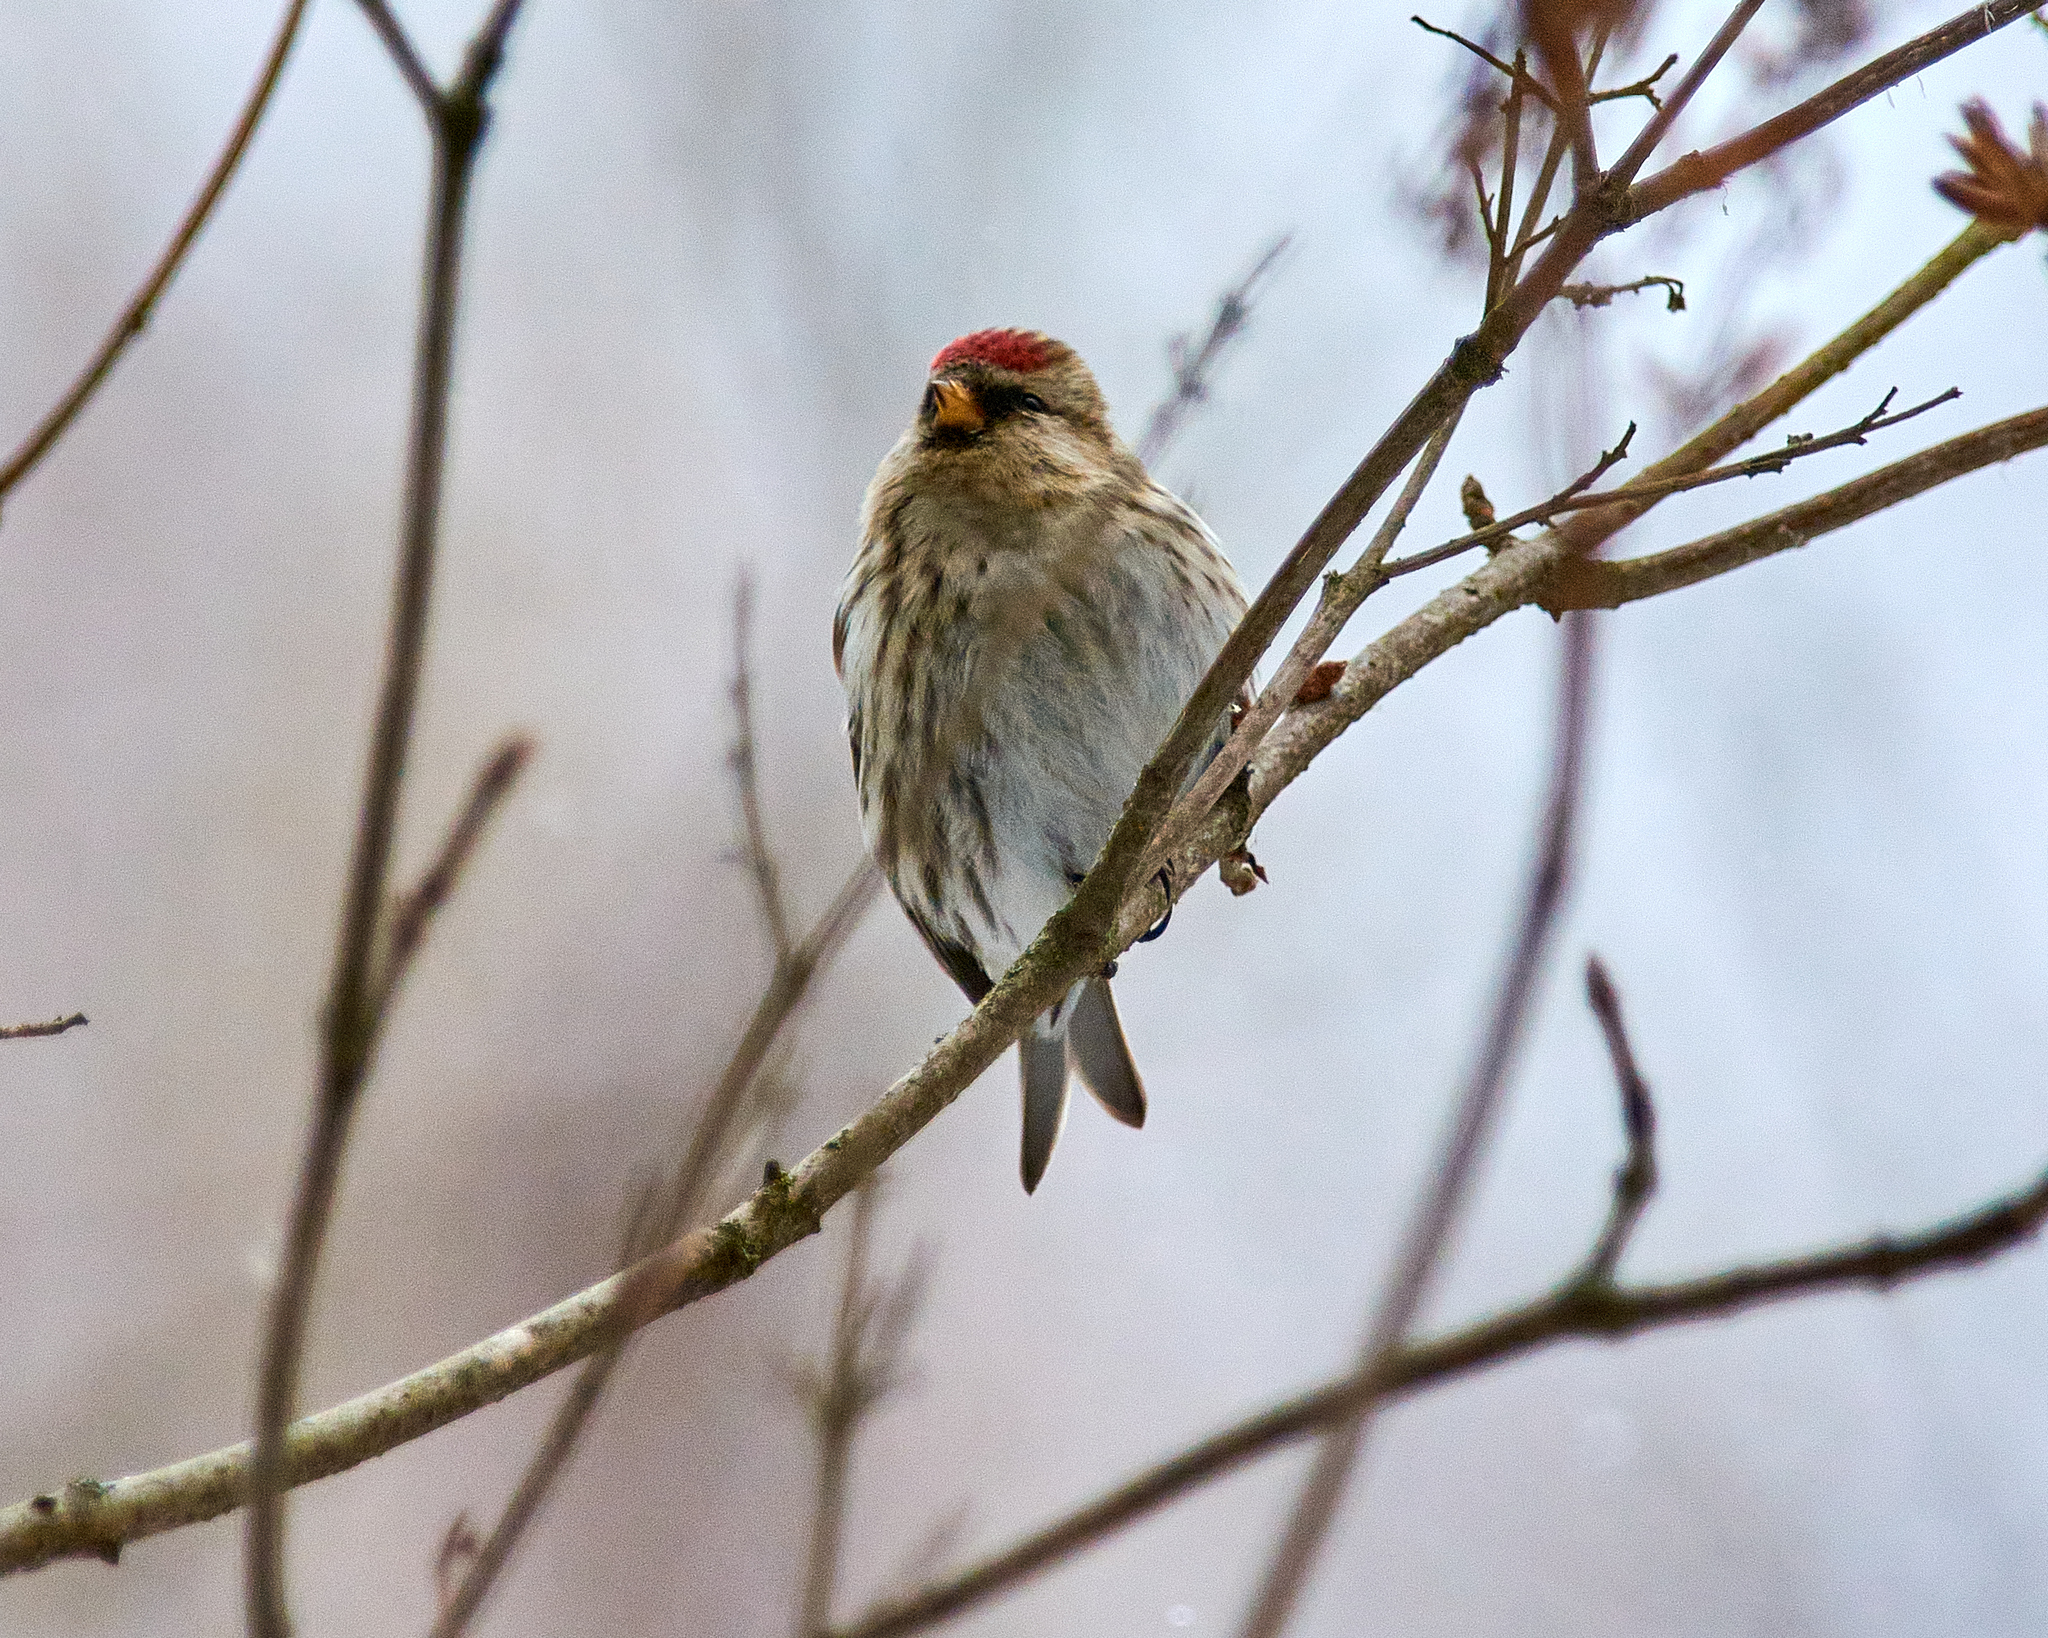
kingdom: Animalia
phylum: Chordata
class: Aves
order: Passeriformes
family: Fringillidae
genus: Acanthis
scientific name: Acanthis flammea
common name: Common redpoll
